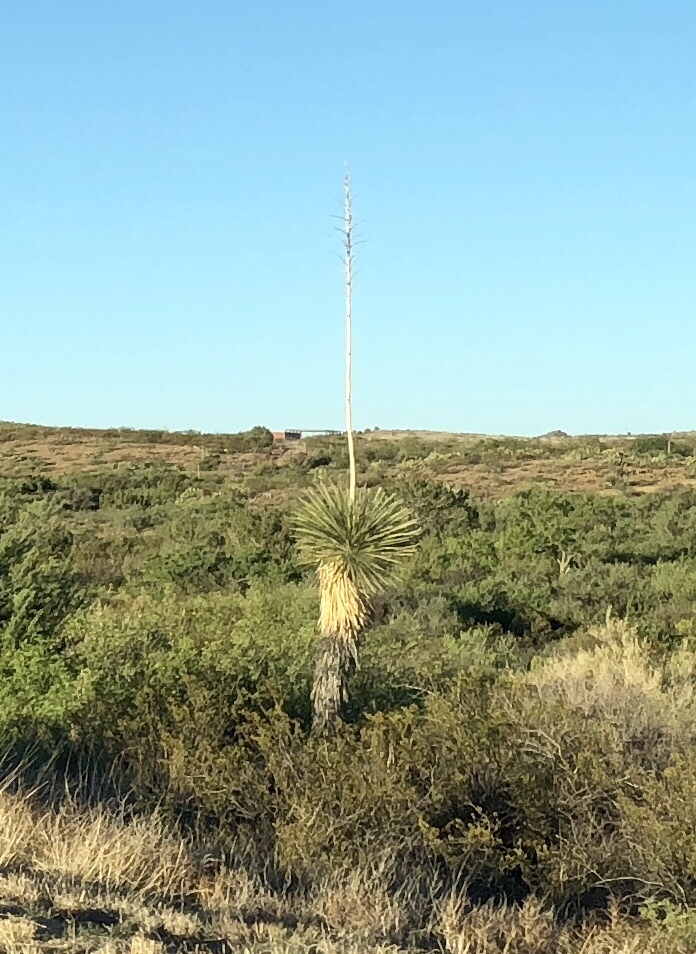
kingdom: Plantae
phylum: Tracheophyta
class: Liliopsida
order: Asparagales
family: Asparagaceae
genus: Yucca
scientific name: Yucca elata
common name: Palmella
